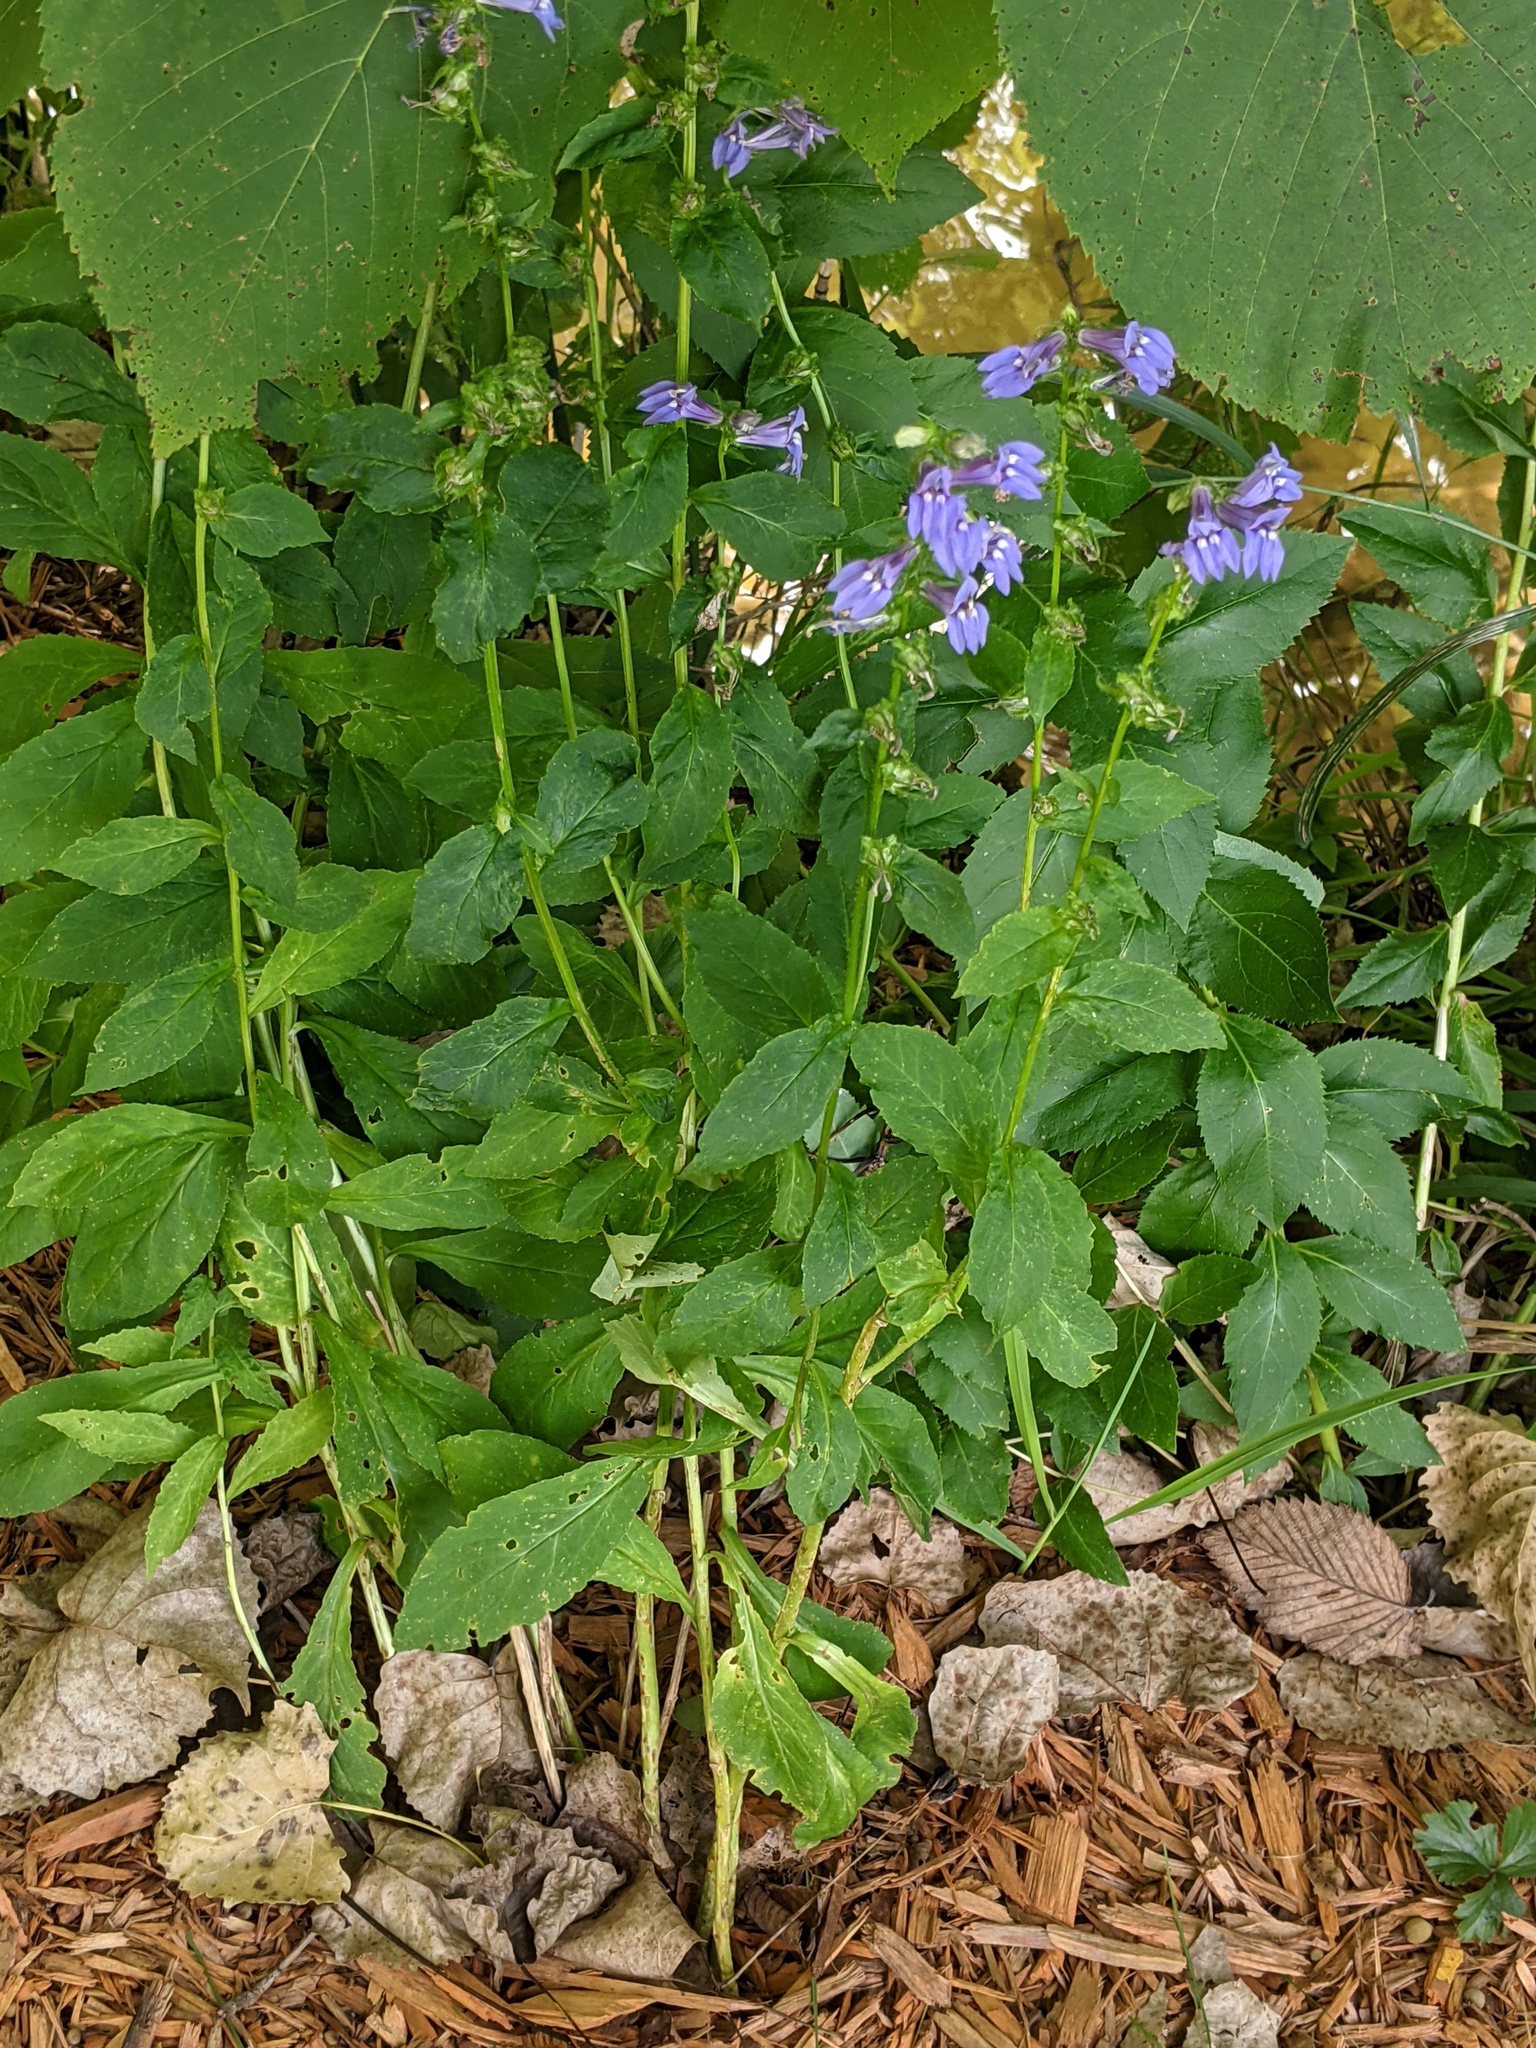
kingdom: Plantae
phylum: Tracheophyta
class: Magnoliopsida
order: Asterales
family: Campanulaceae
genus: Lobelia
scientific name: Lobelia siphilitica
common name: Great lobelia
